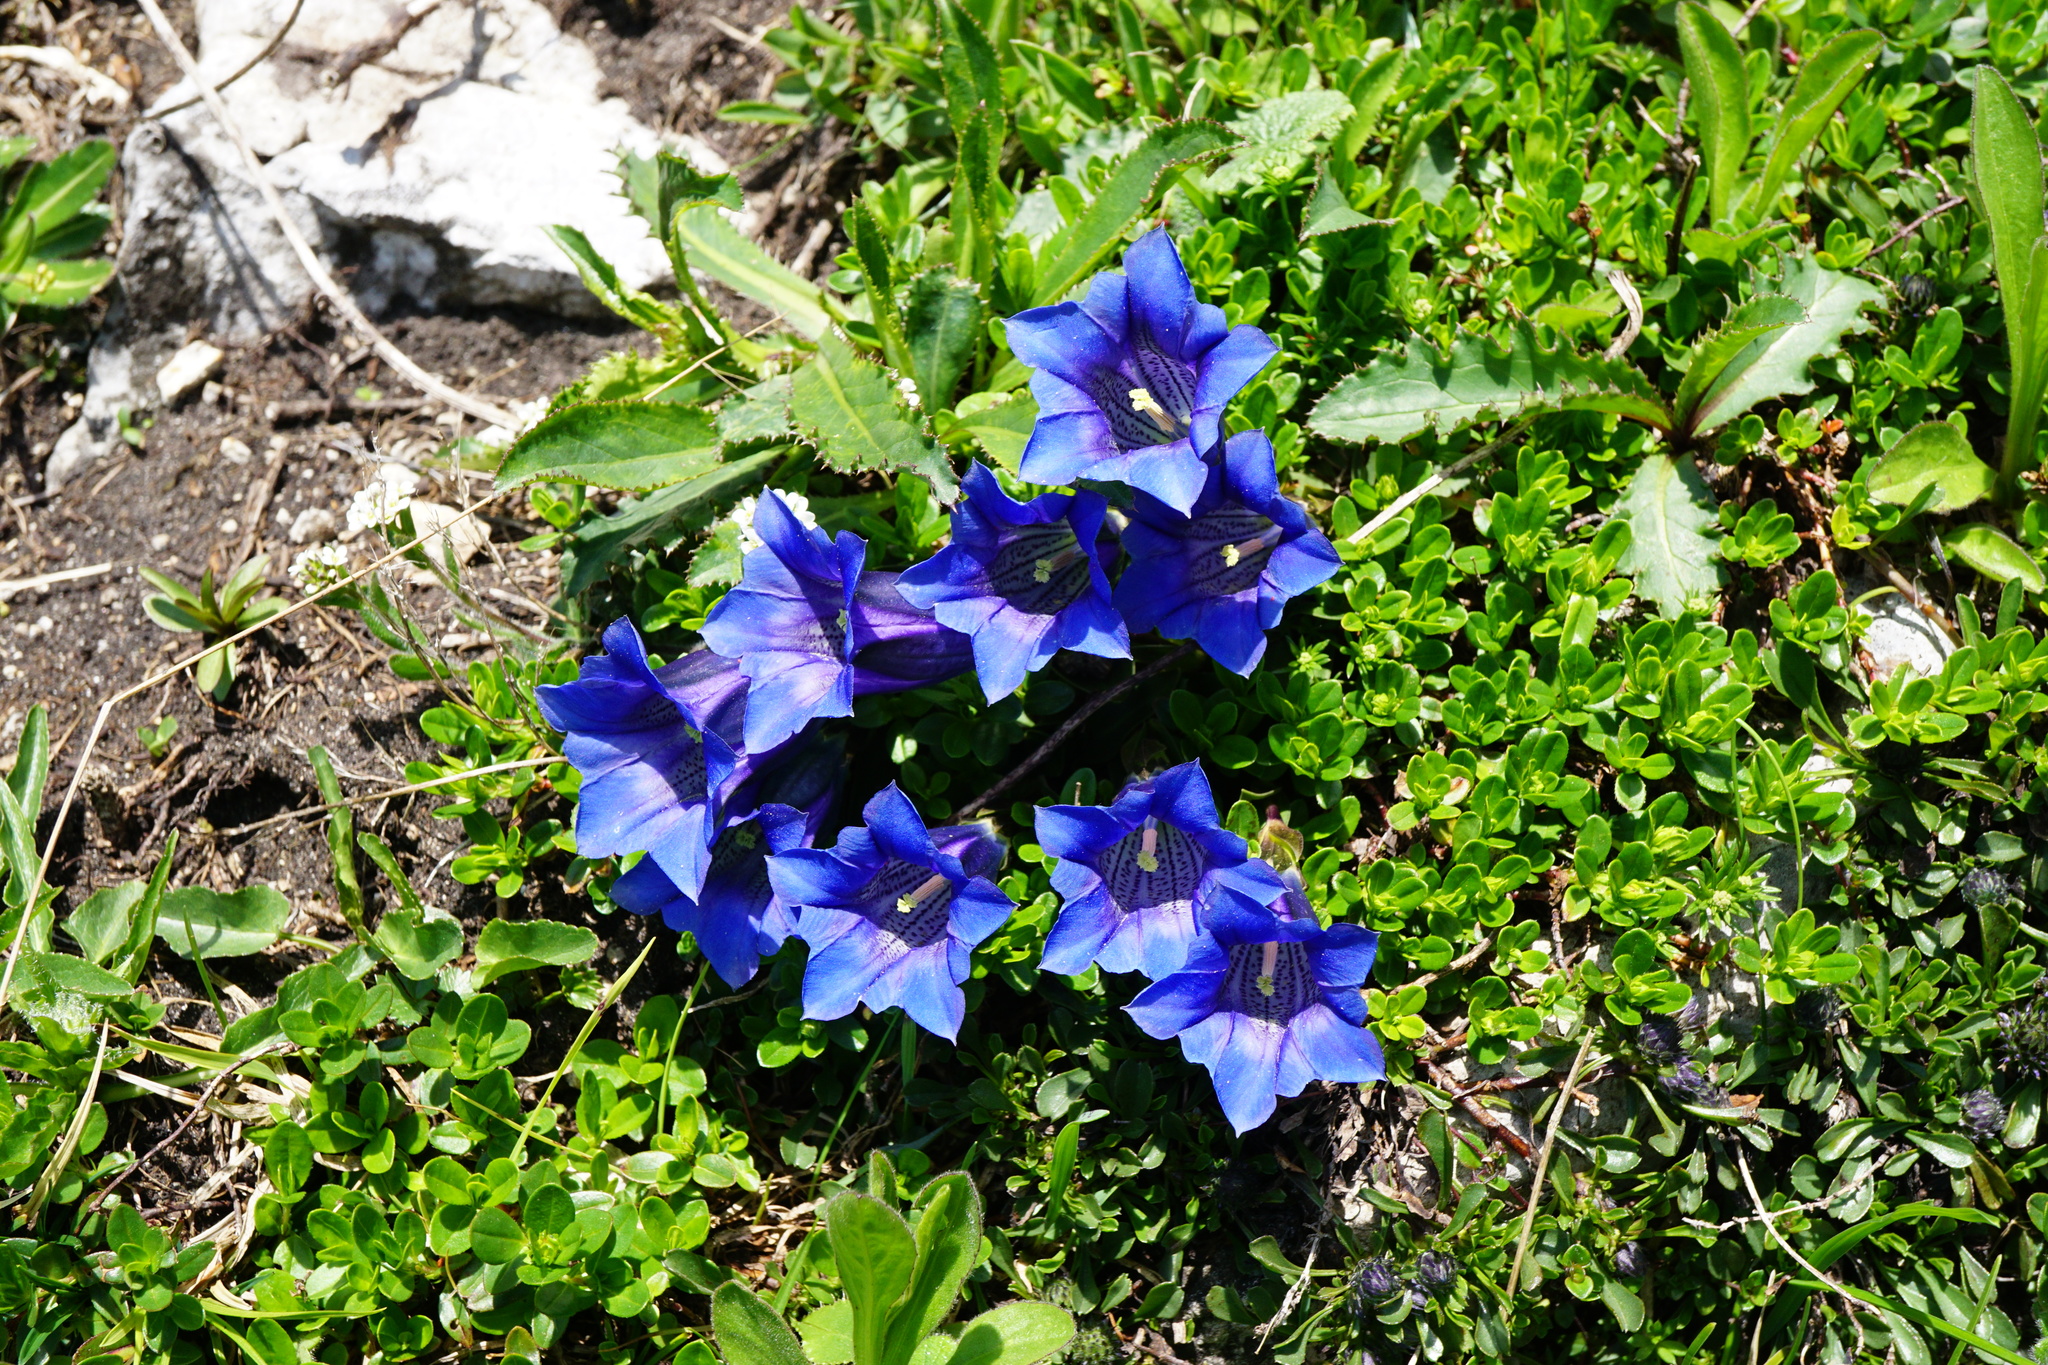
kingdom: Plantae
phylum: Tracheophyta
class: Magnoliopsida
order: Gentianales
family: Gentianaceae
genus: Gentiana
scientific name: Gentiana clusii
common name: Trumpet gentian
